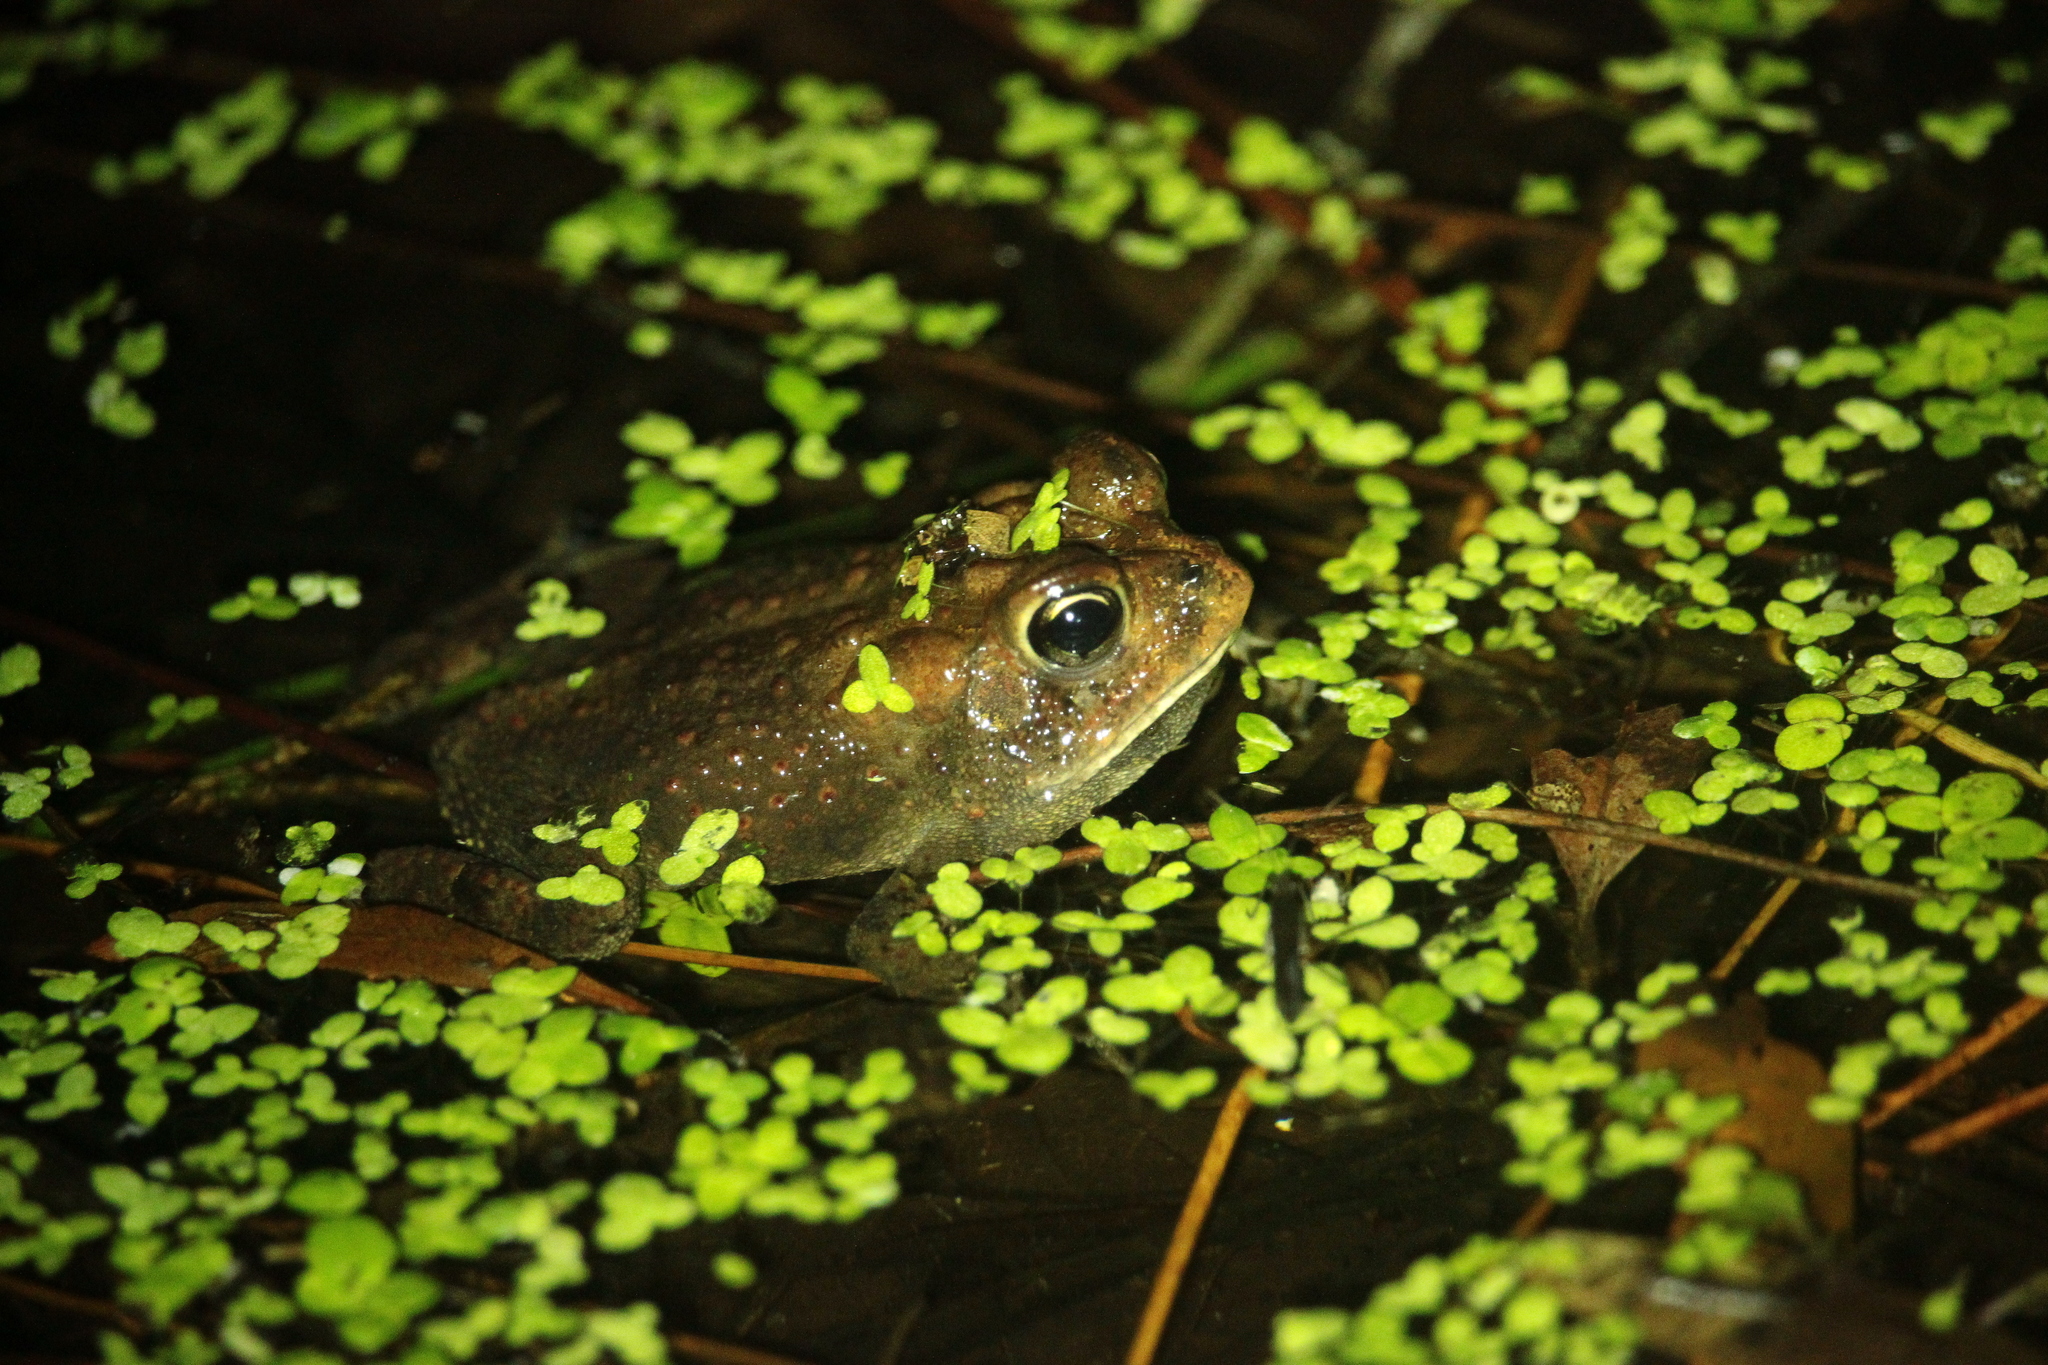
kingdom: Animalia
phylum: Chordata
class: Amphibia
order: Anura
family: Bufonidae
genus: Anaxyrus
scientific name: Anaxyrus terrestris
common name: Southern toad
